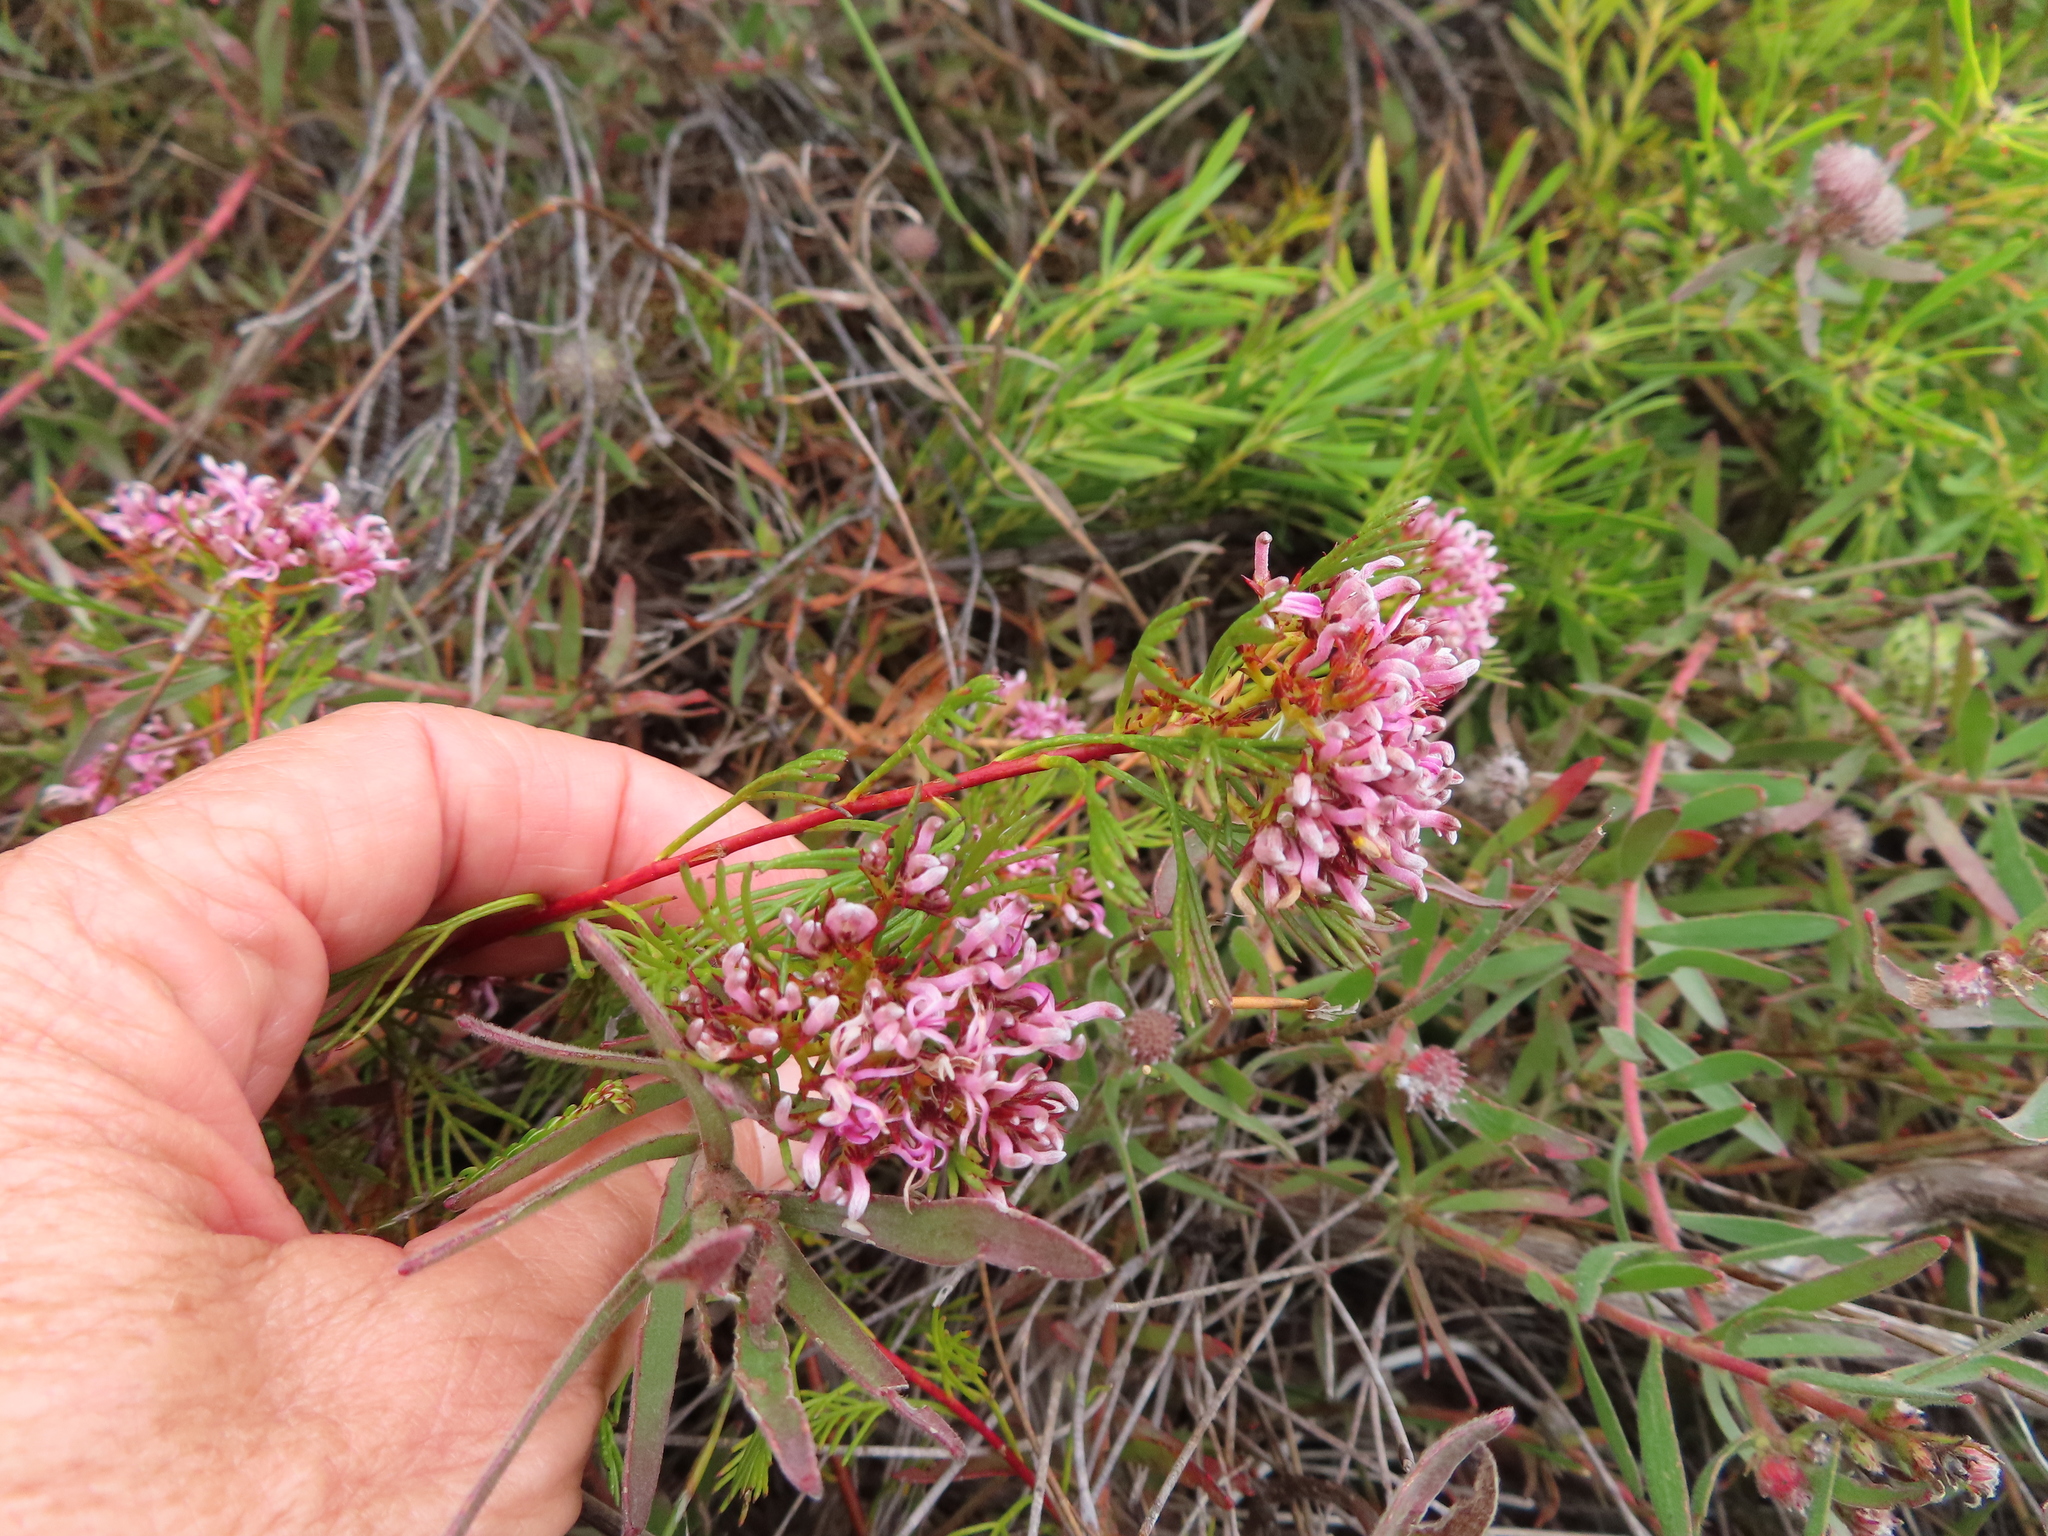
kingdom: Plantae
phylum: Tracheophyta
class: Magnoliopsida
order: Proteales
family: Proteaceae
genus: Serruria
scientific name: Serruria bolusii
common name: Agulhas spiderhead
